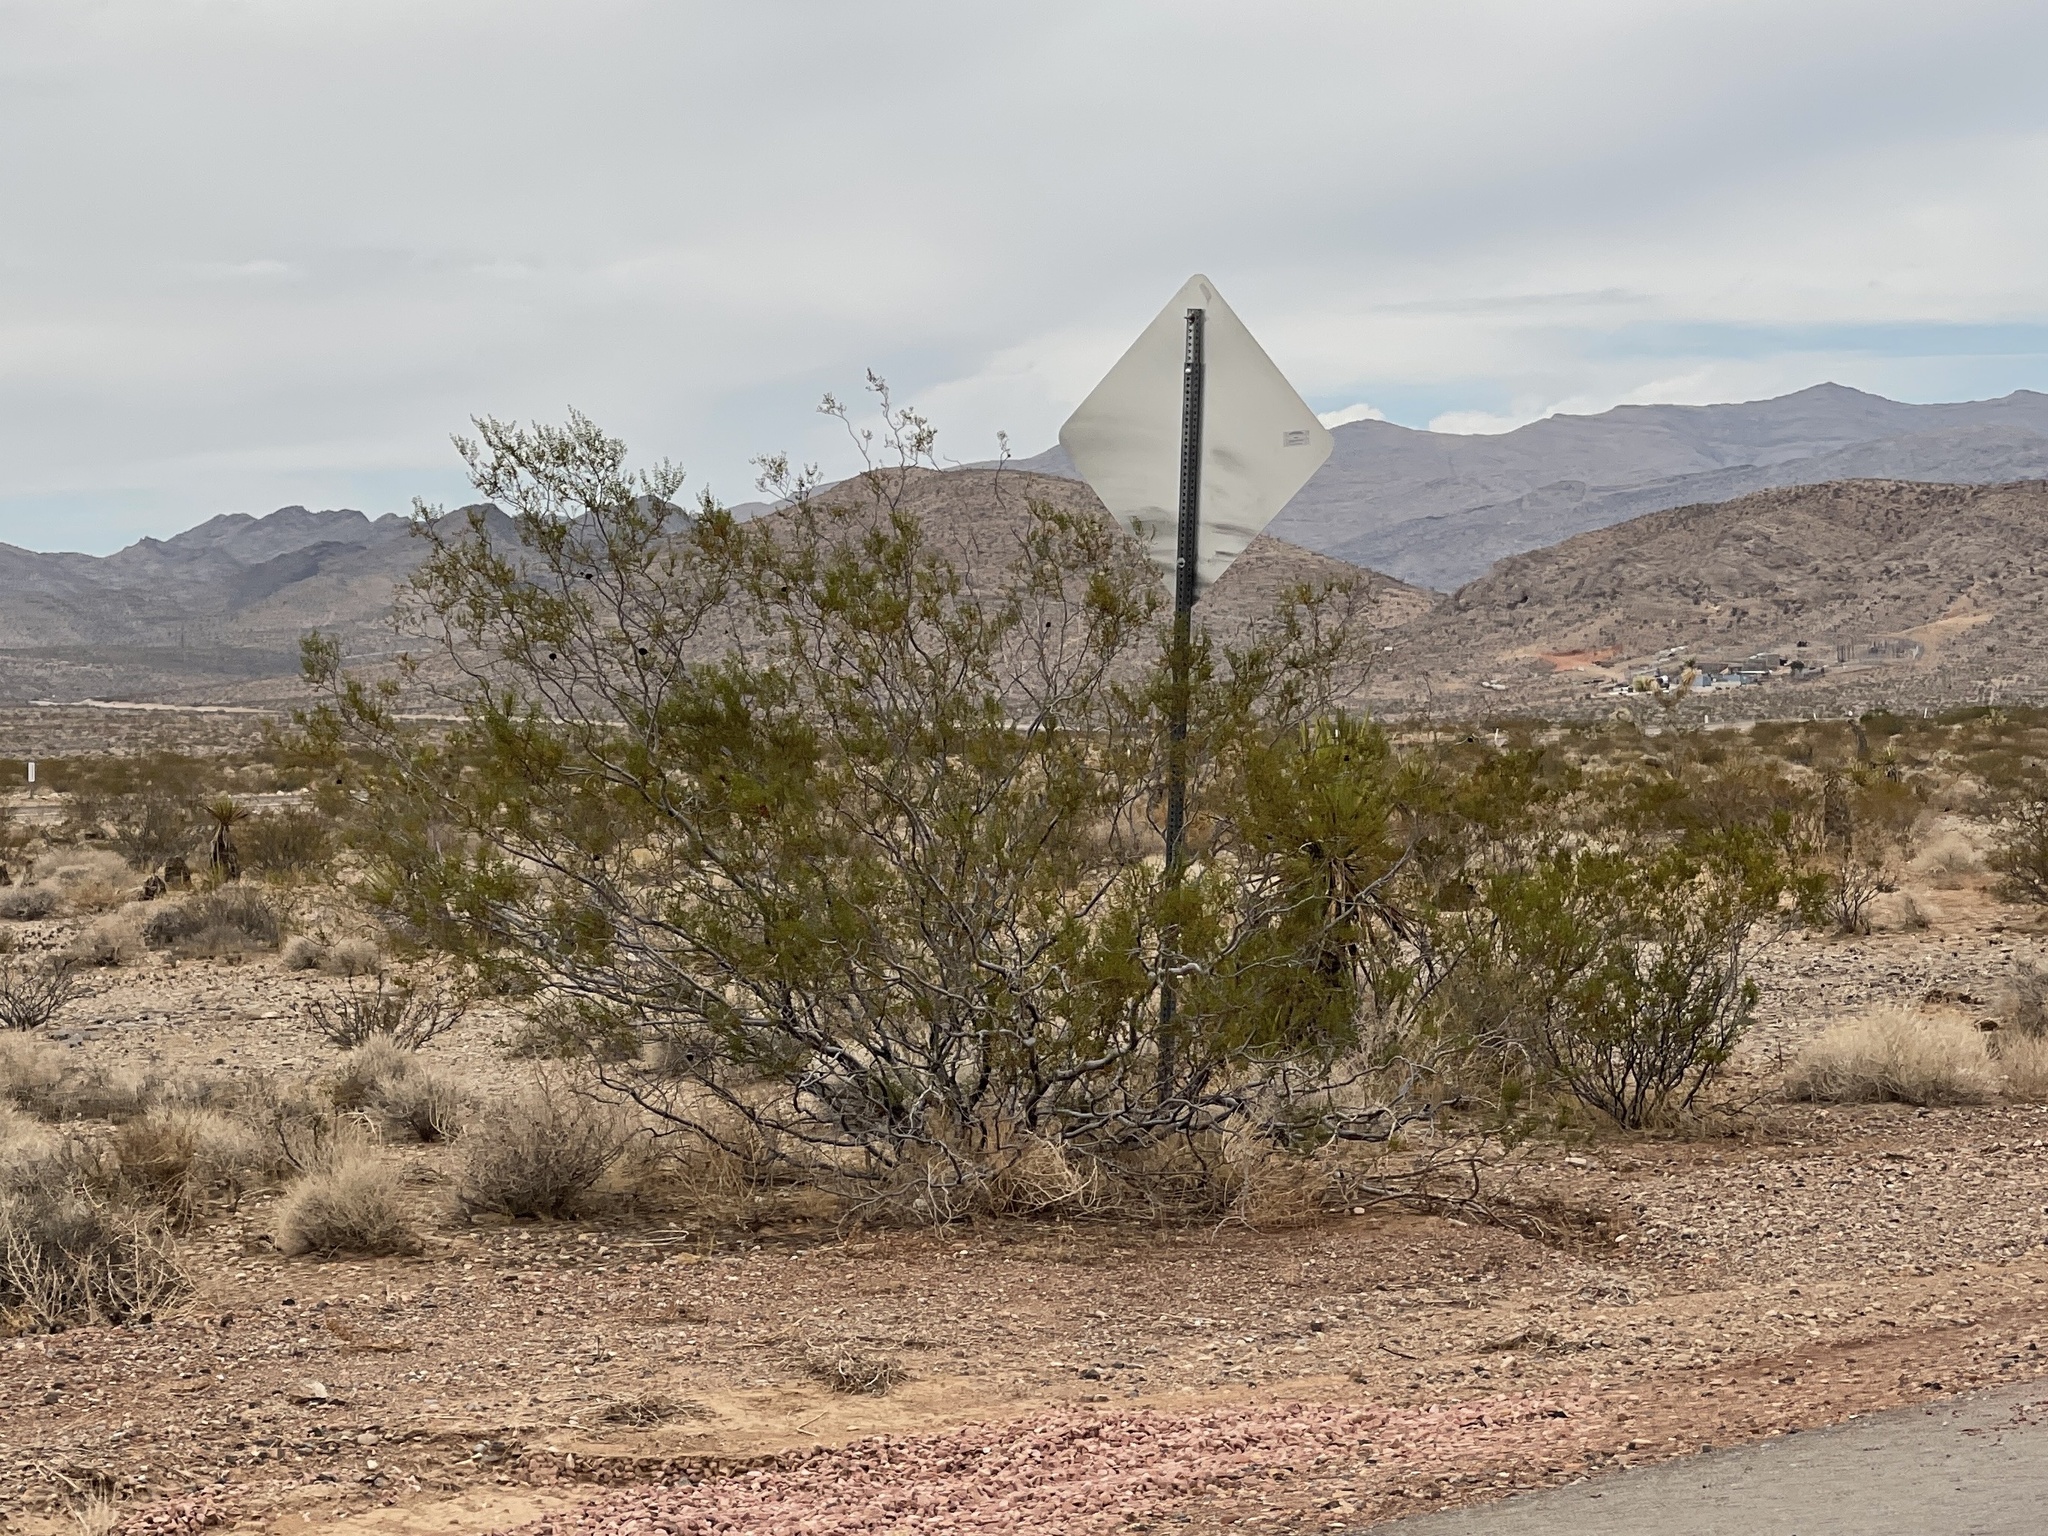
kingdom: Plantae
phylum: Tracheophyta
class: Magnoliopsida
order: Zygophyllales
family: Zygophyllaceae
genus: Larrea
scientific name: Larrea tridentata
